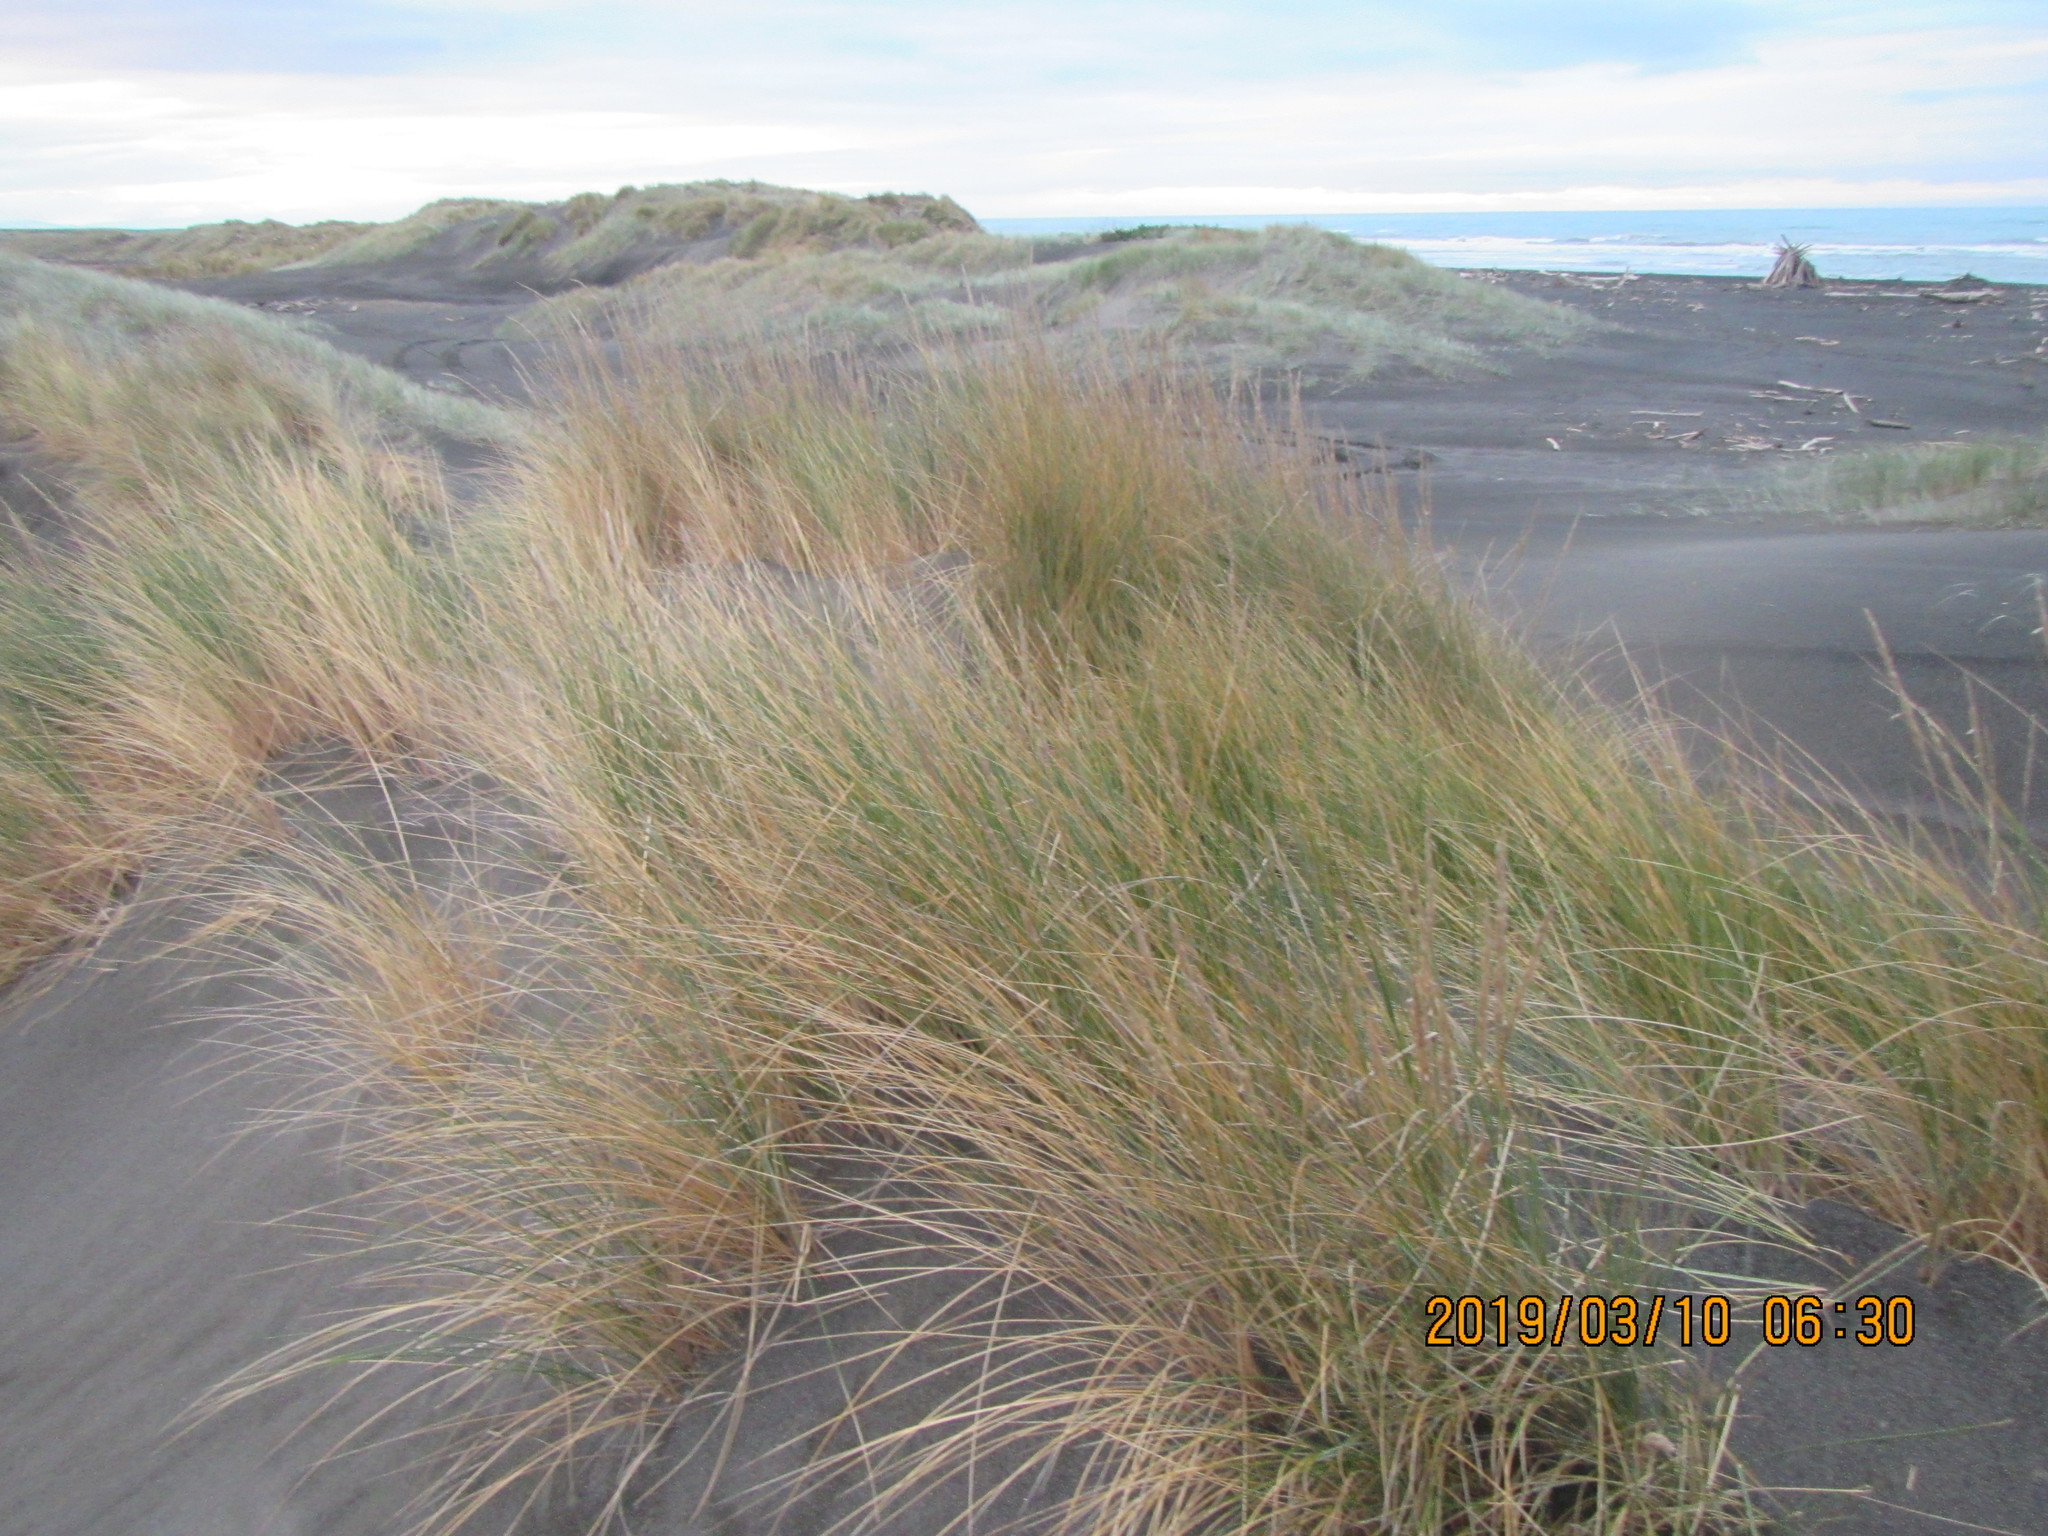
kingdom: Plantae
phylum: Tracheophyta
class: Liliopsida
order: Poales
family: Poaceae
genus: Calamagrostis
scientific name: Calamagrostis arenaria
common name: European beachgrass
